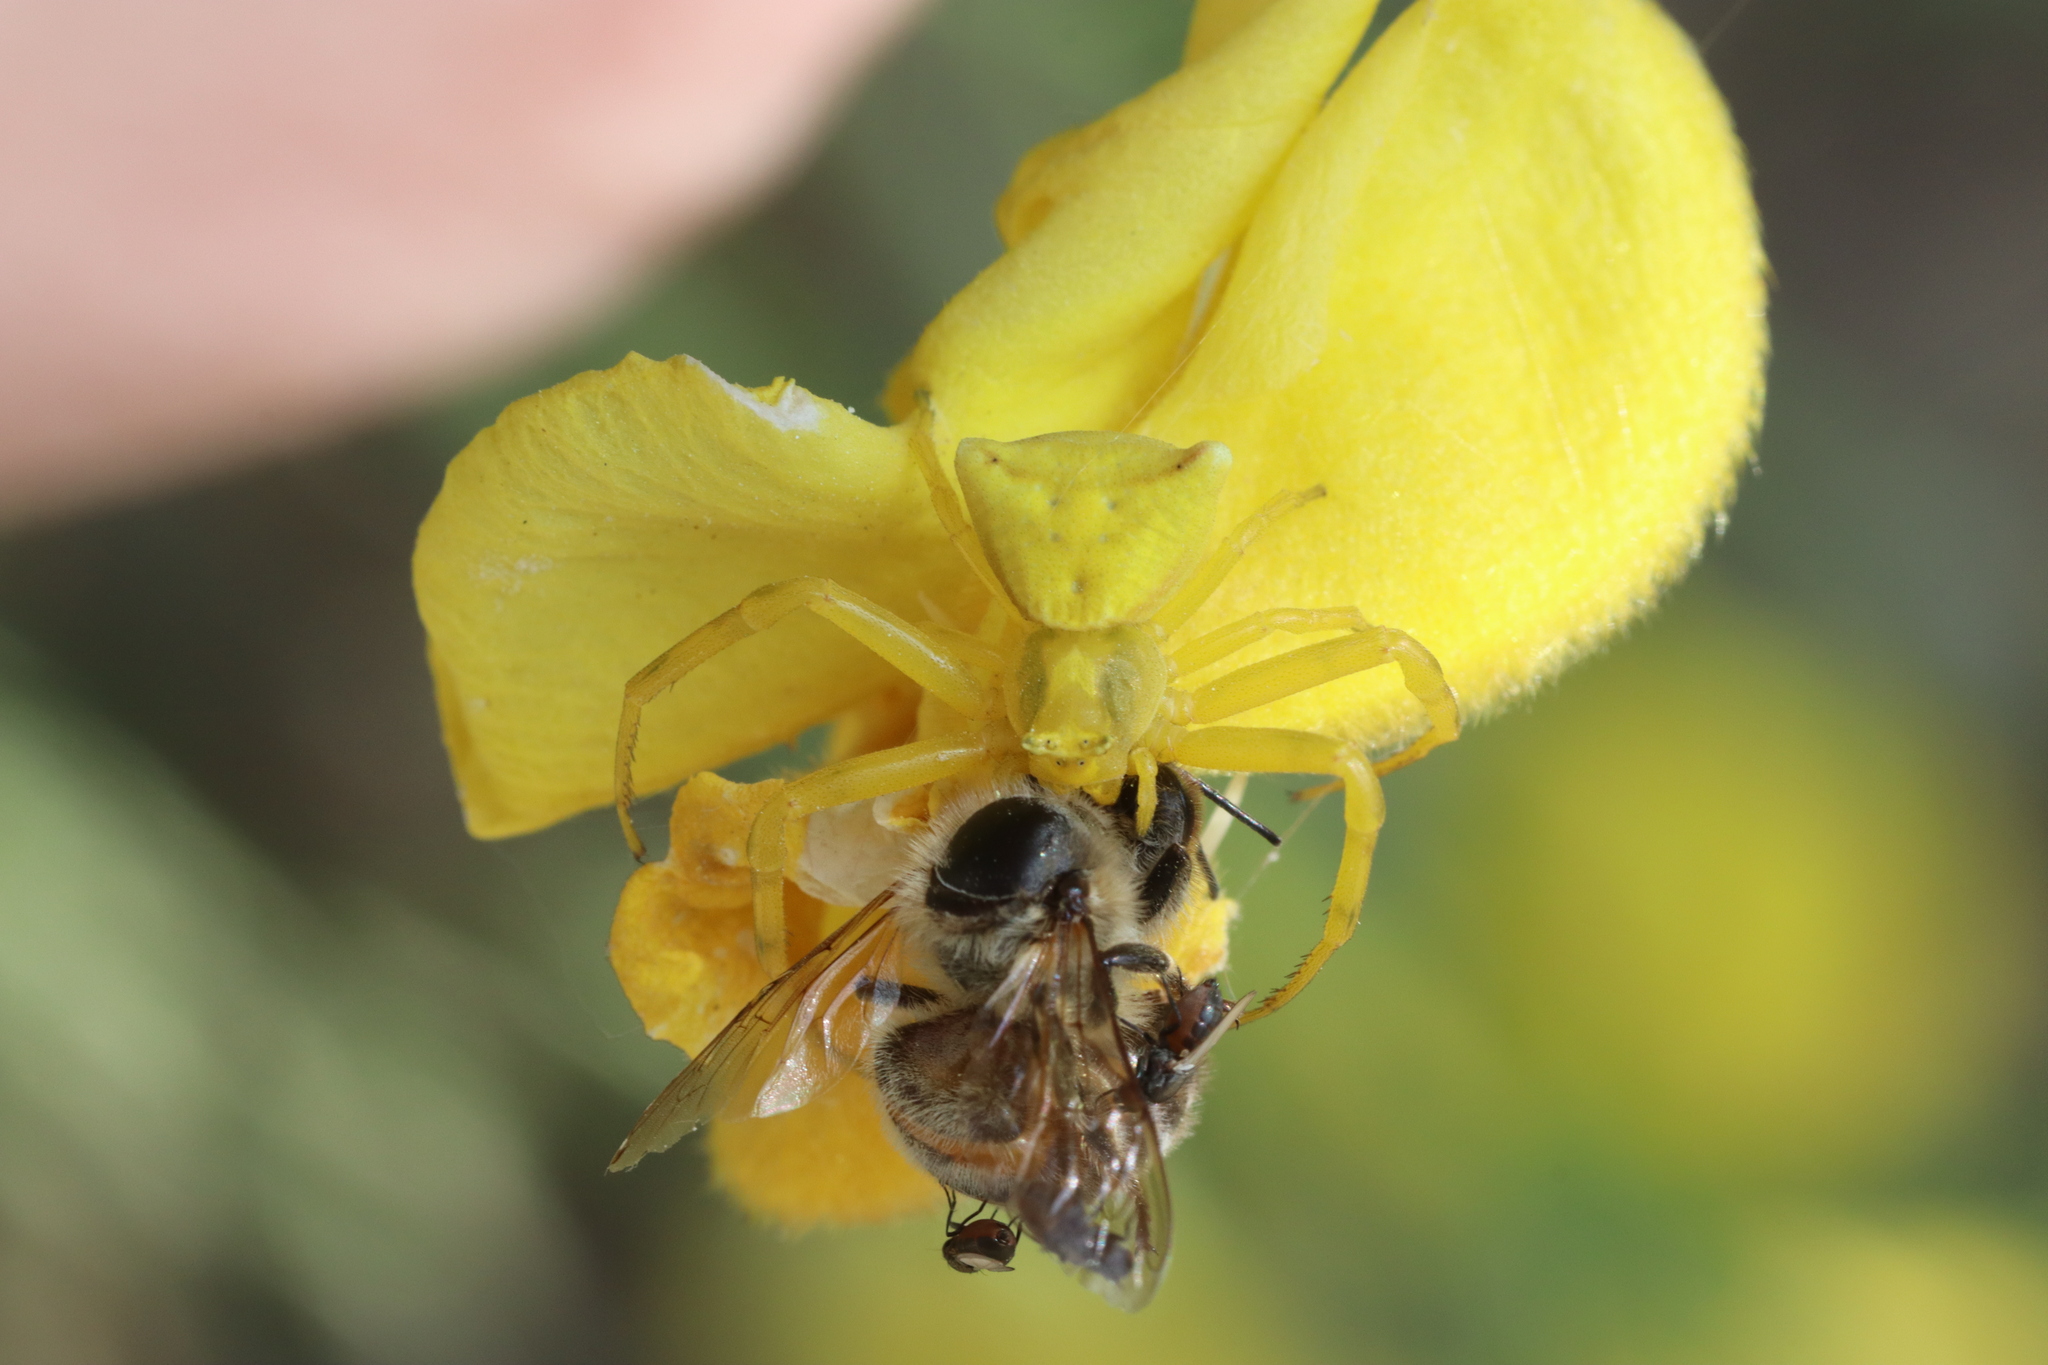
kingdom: Animalia
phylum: Arthropoda
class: Arachnida
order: Araneae
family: Thomisidae
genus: Thomisus
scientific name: Thomisus onustus
